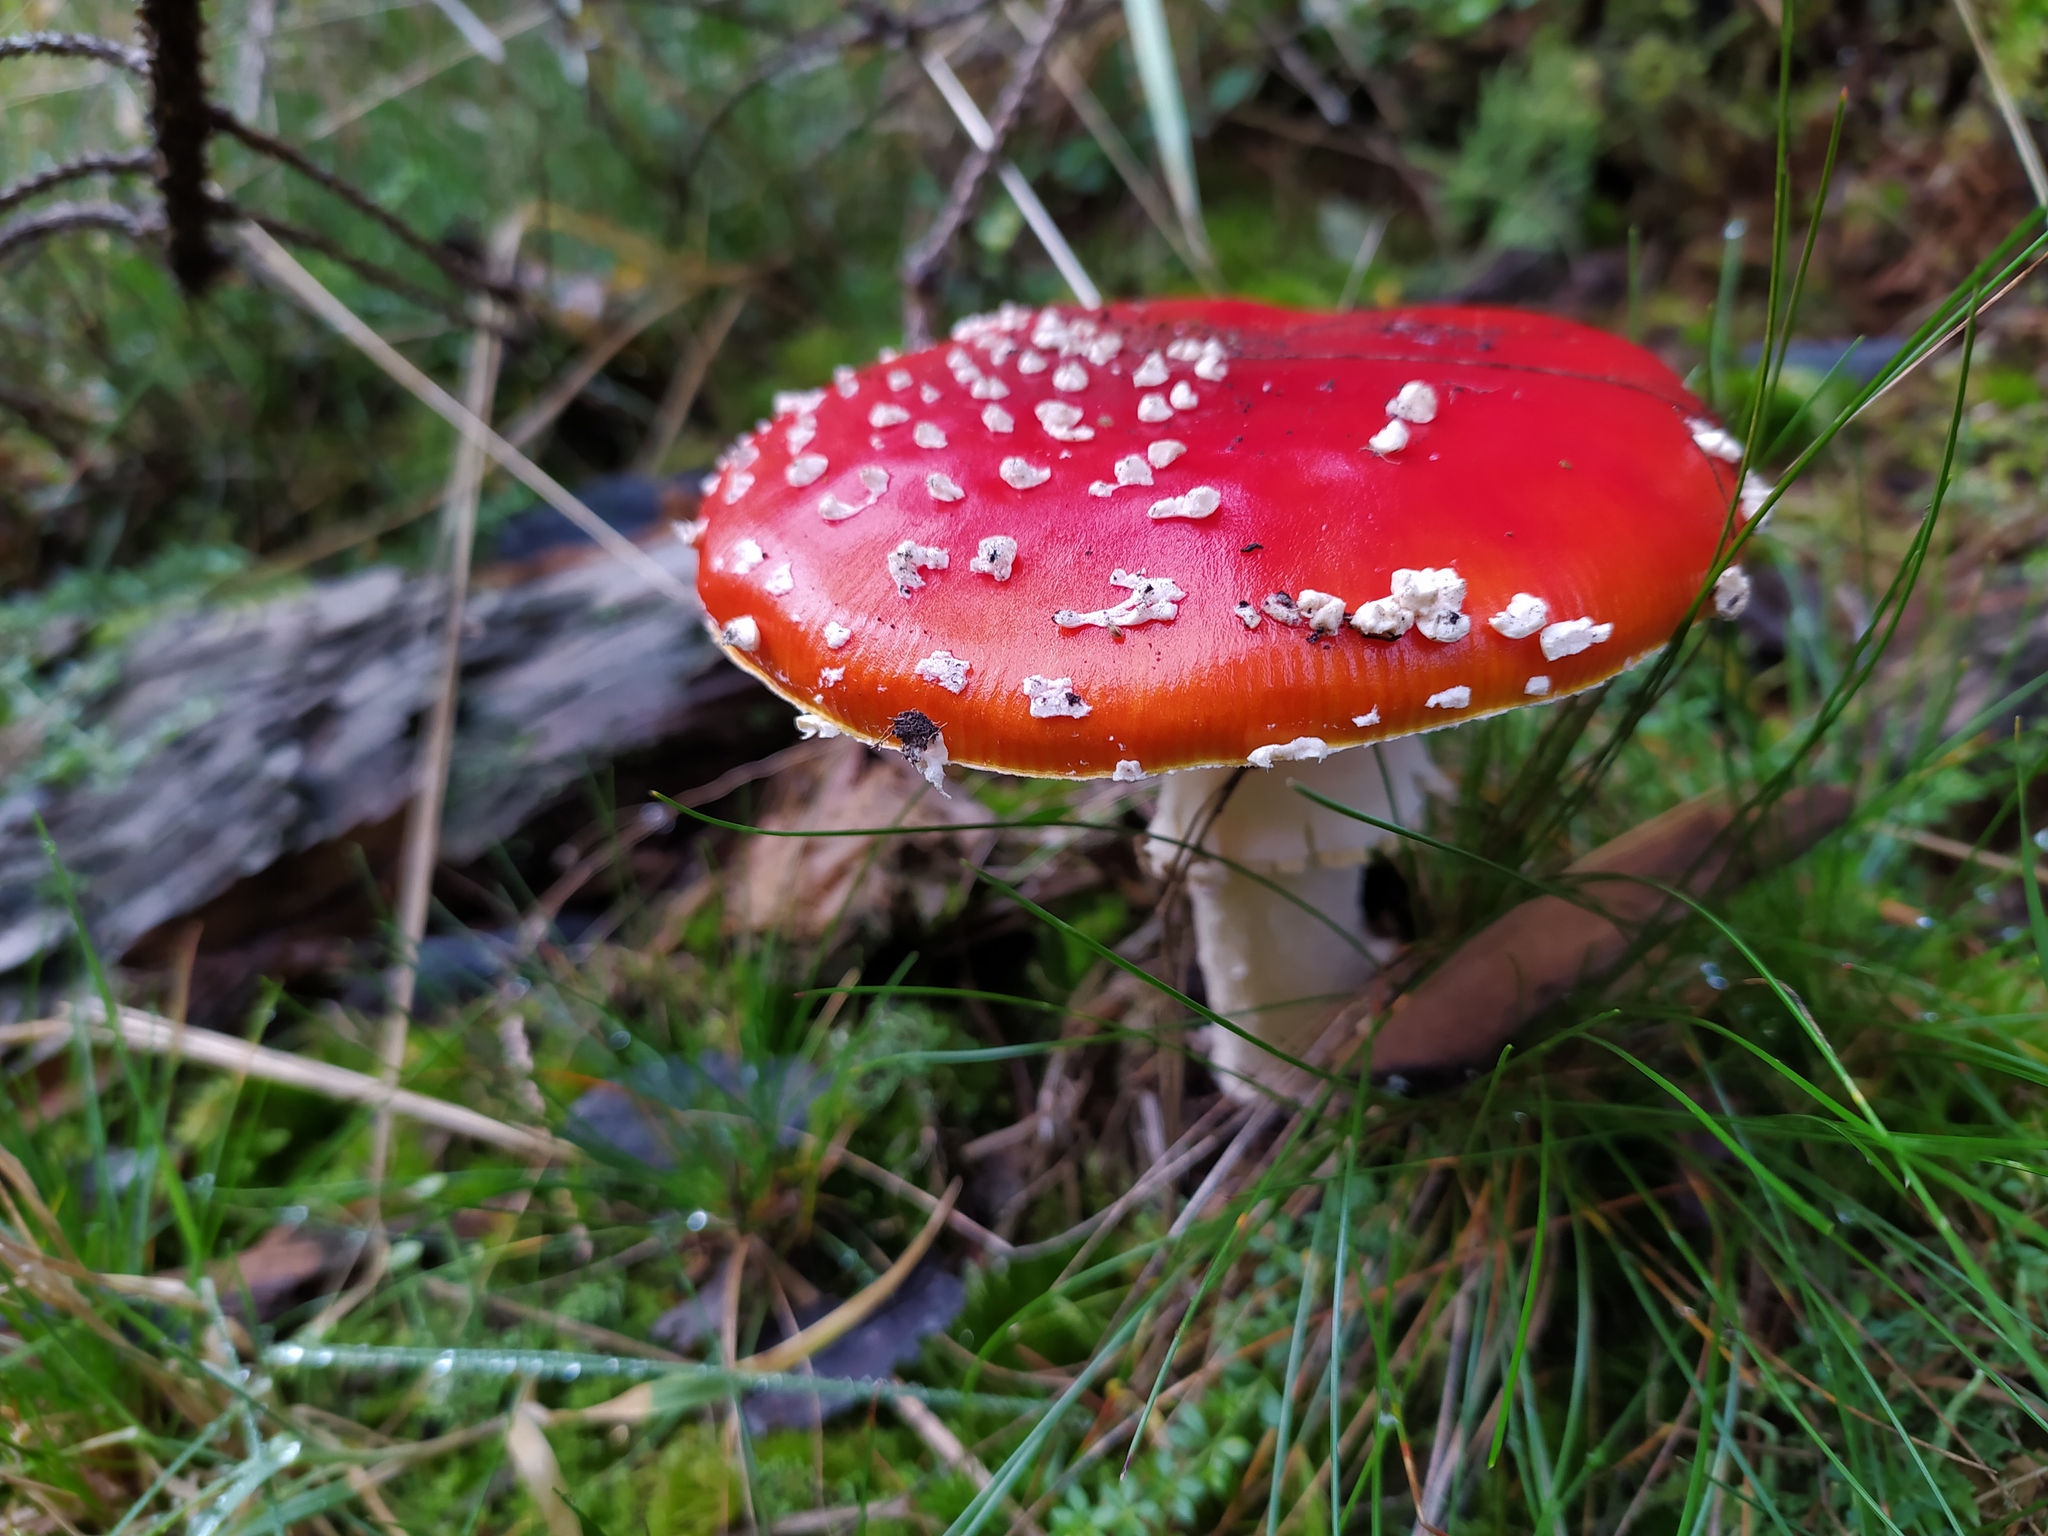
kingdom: Fungi
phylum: Basidiomycota
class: Agaricomycetes
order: Agaricales
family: Amanitaceae
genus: Amanita
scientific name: Amanita muscaria
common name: Fly agaric
